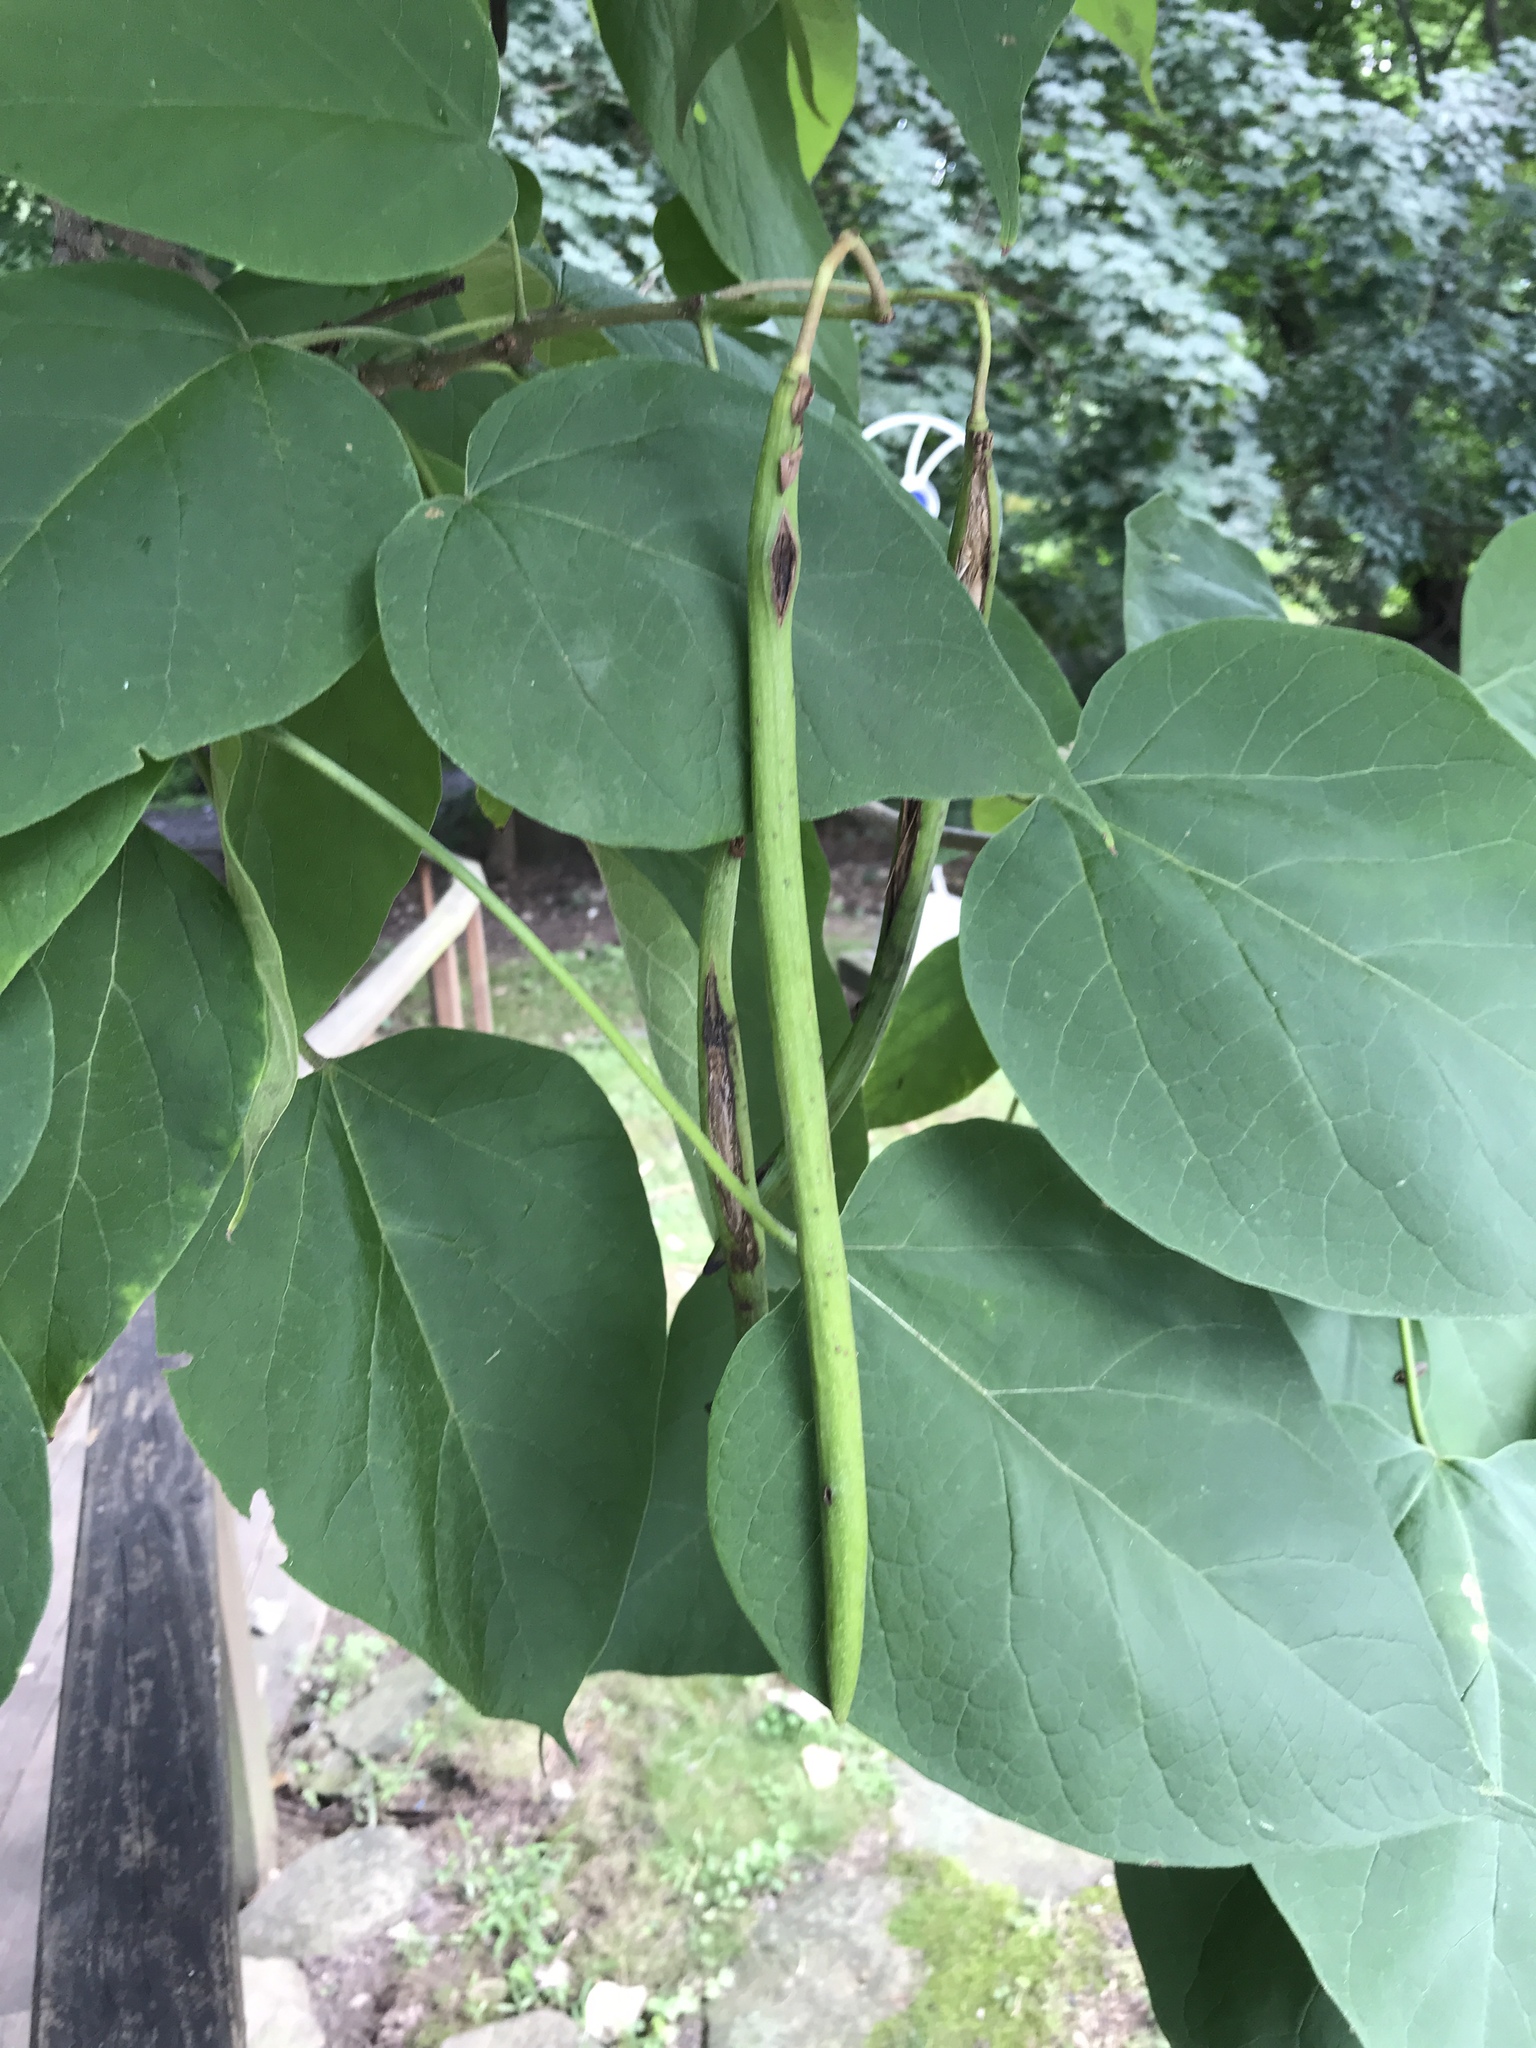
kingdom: Plantae
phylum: Tracheophyta
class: Magnoliopsida
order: Lamiales
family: Bignoniaceae
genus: Catalpa
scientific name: Catalpa speciosa
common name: Northern catalpa
